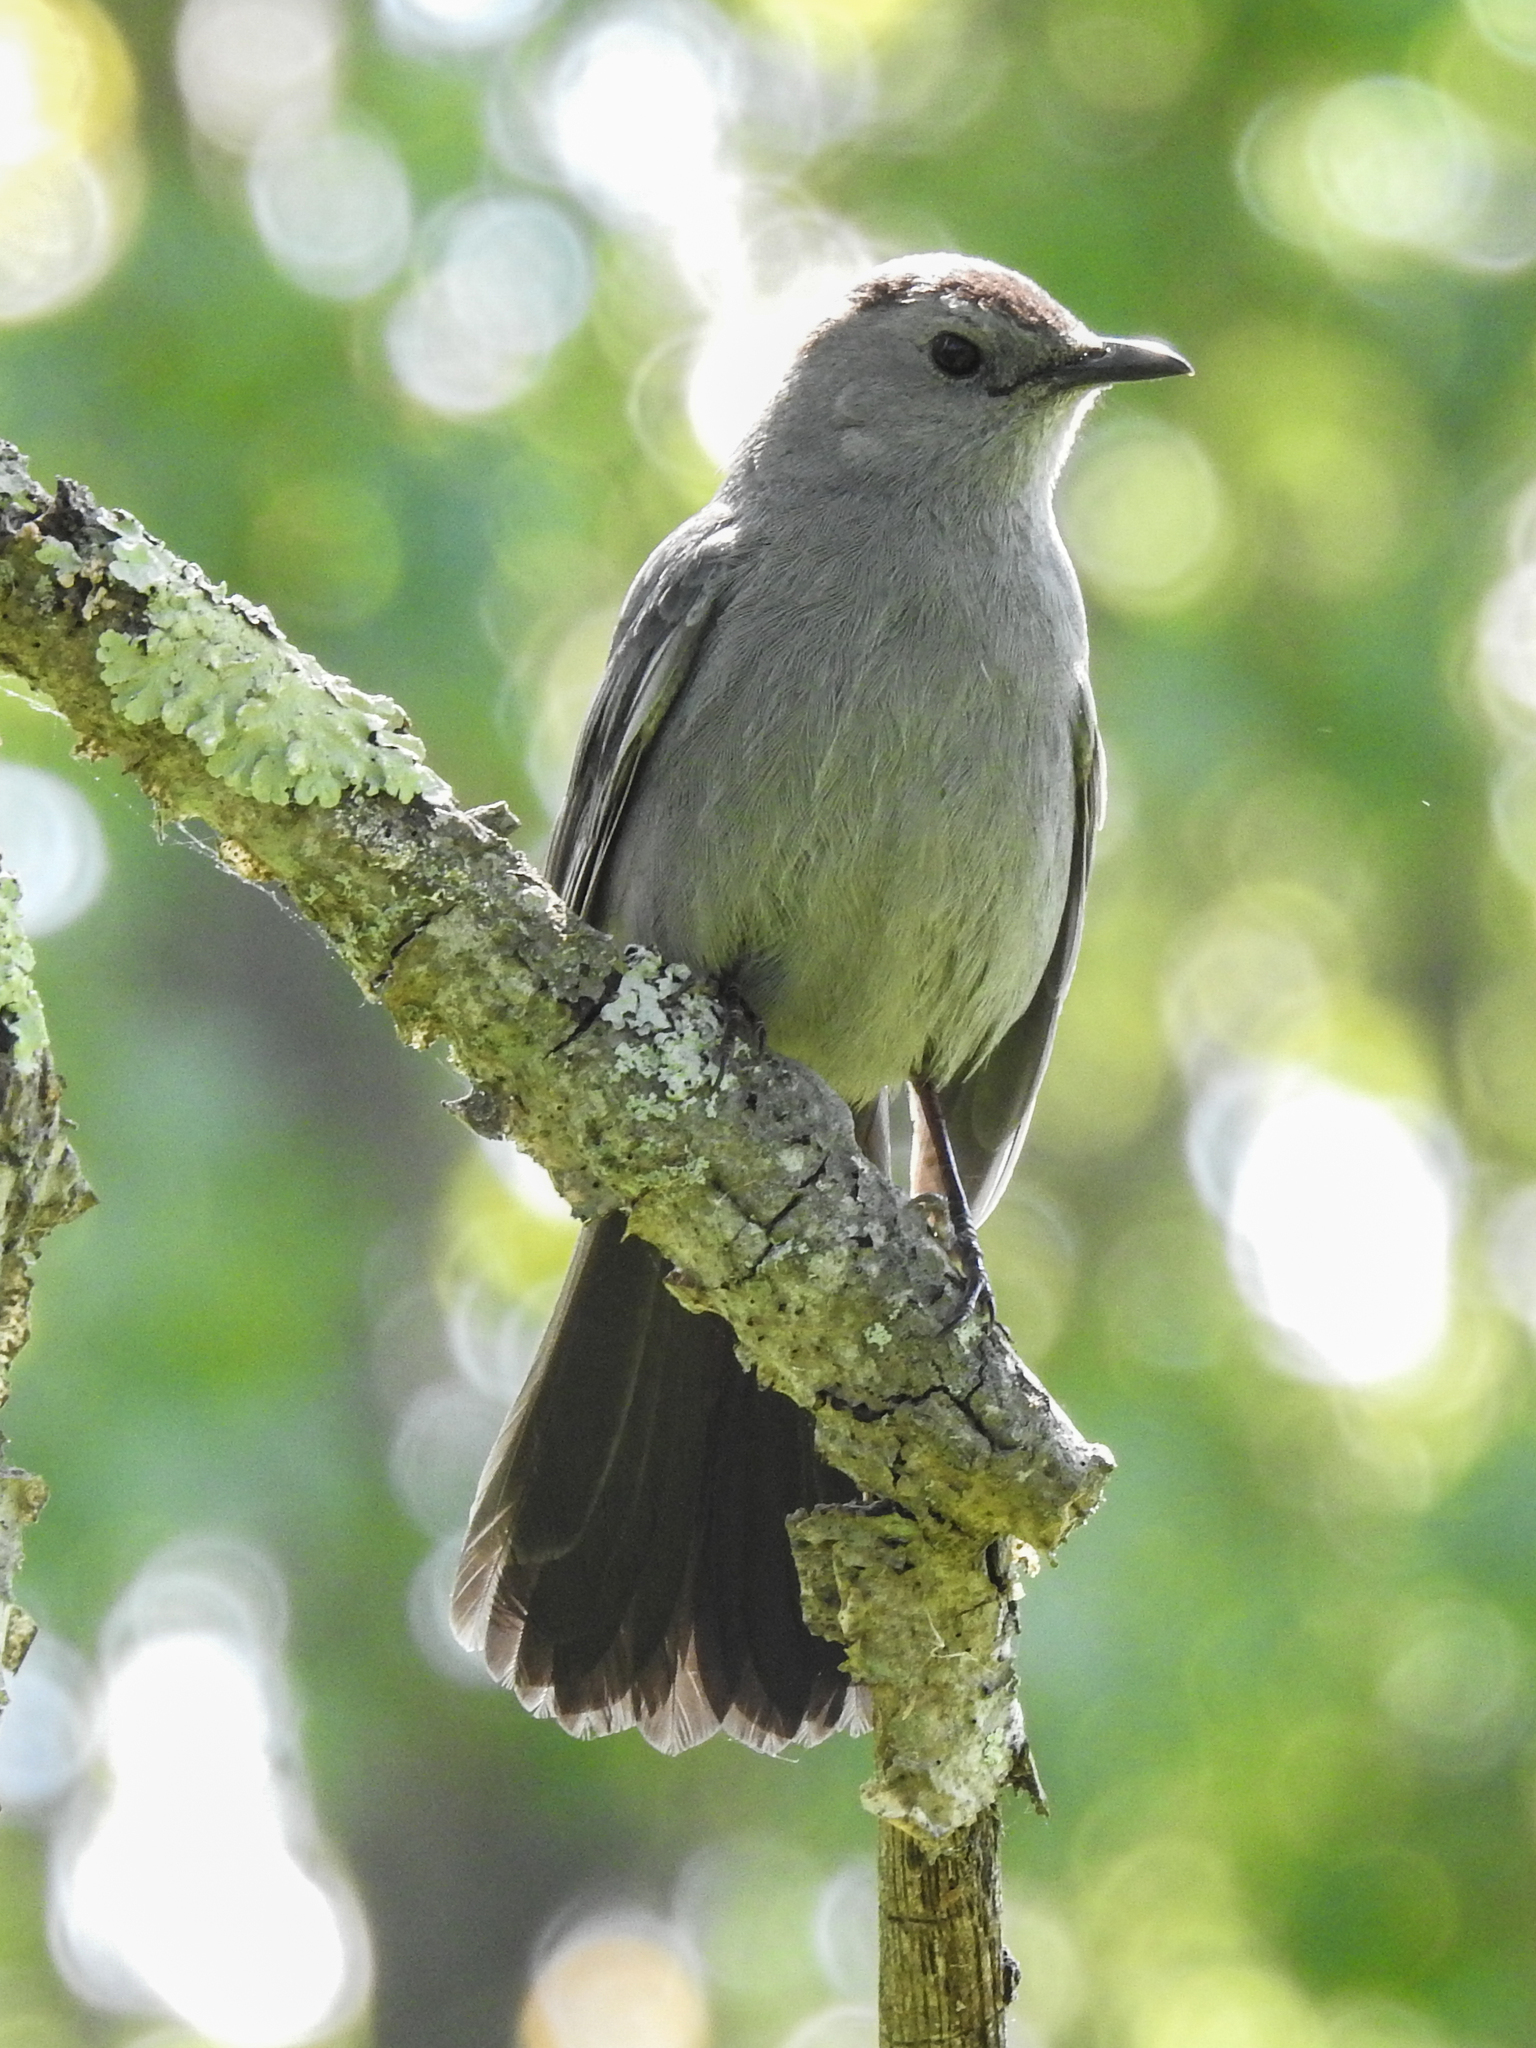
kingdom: Animalia
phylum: Chordata
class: Aves
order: Passeriformes
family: Mimidae
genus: Dumetella
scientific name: Dumetella carolinensis
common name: Gray catbird
